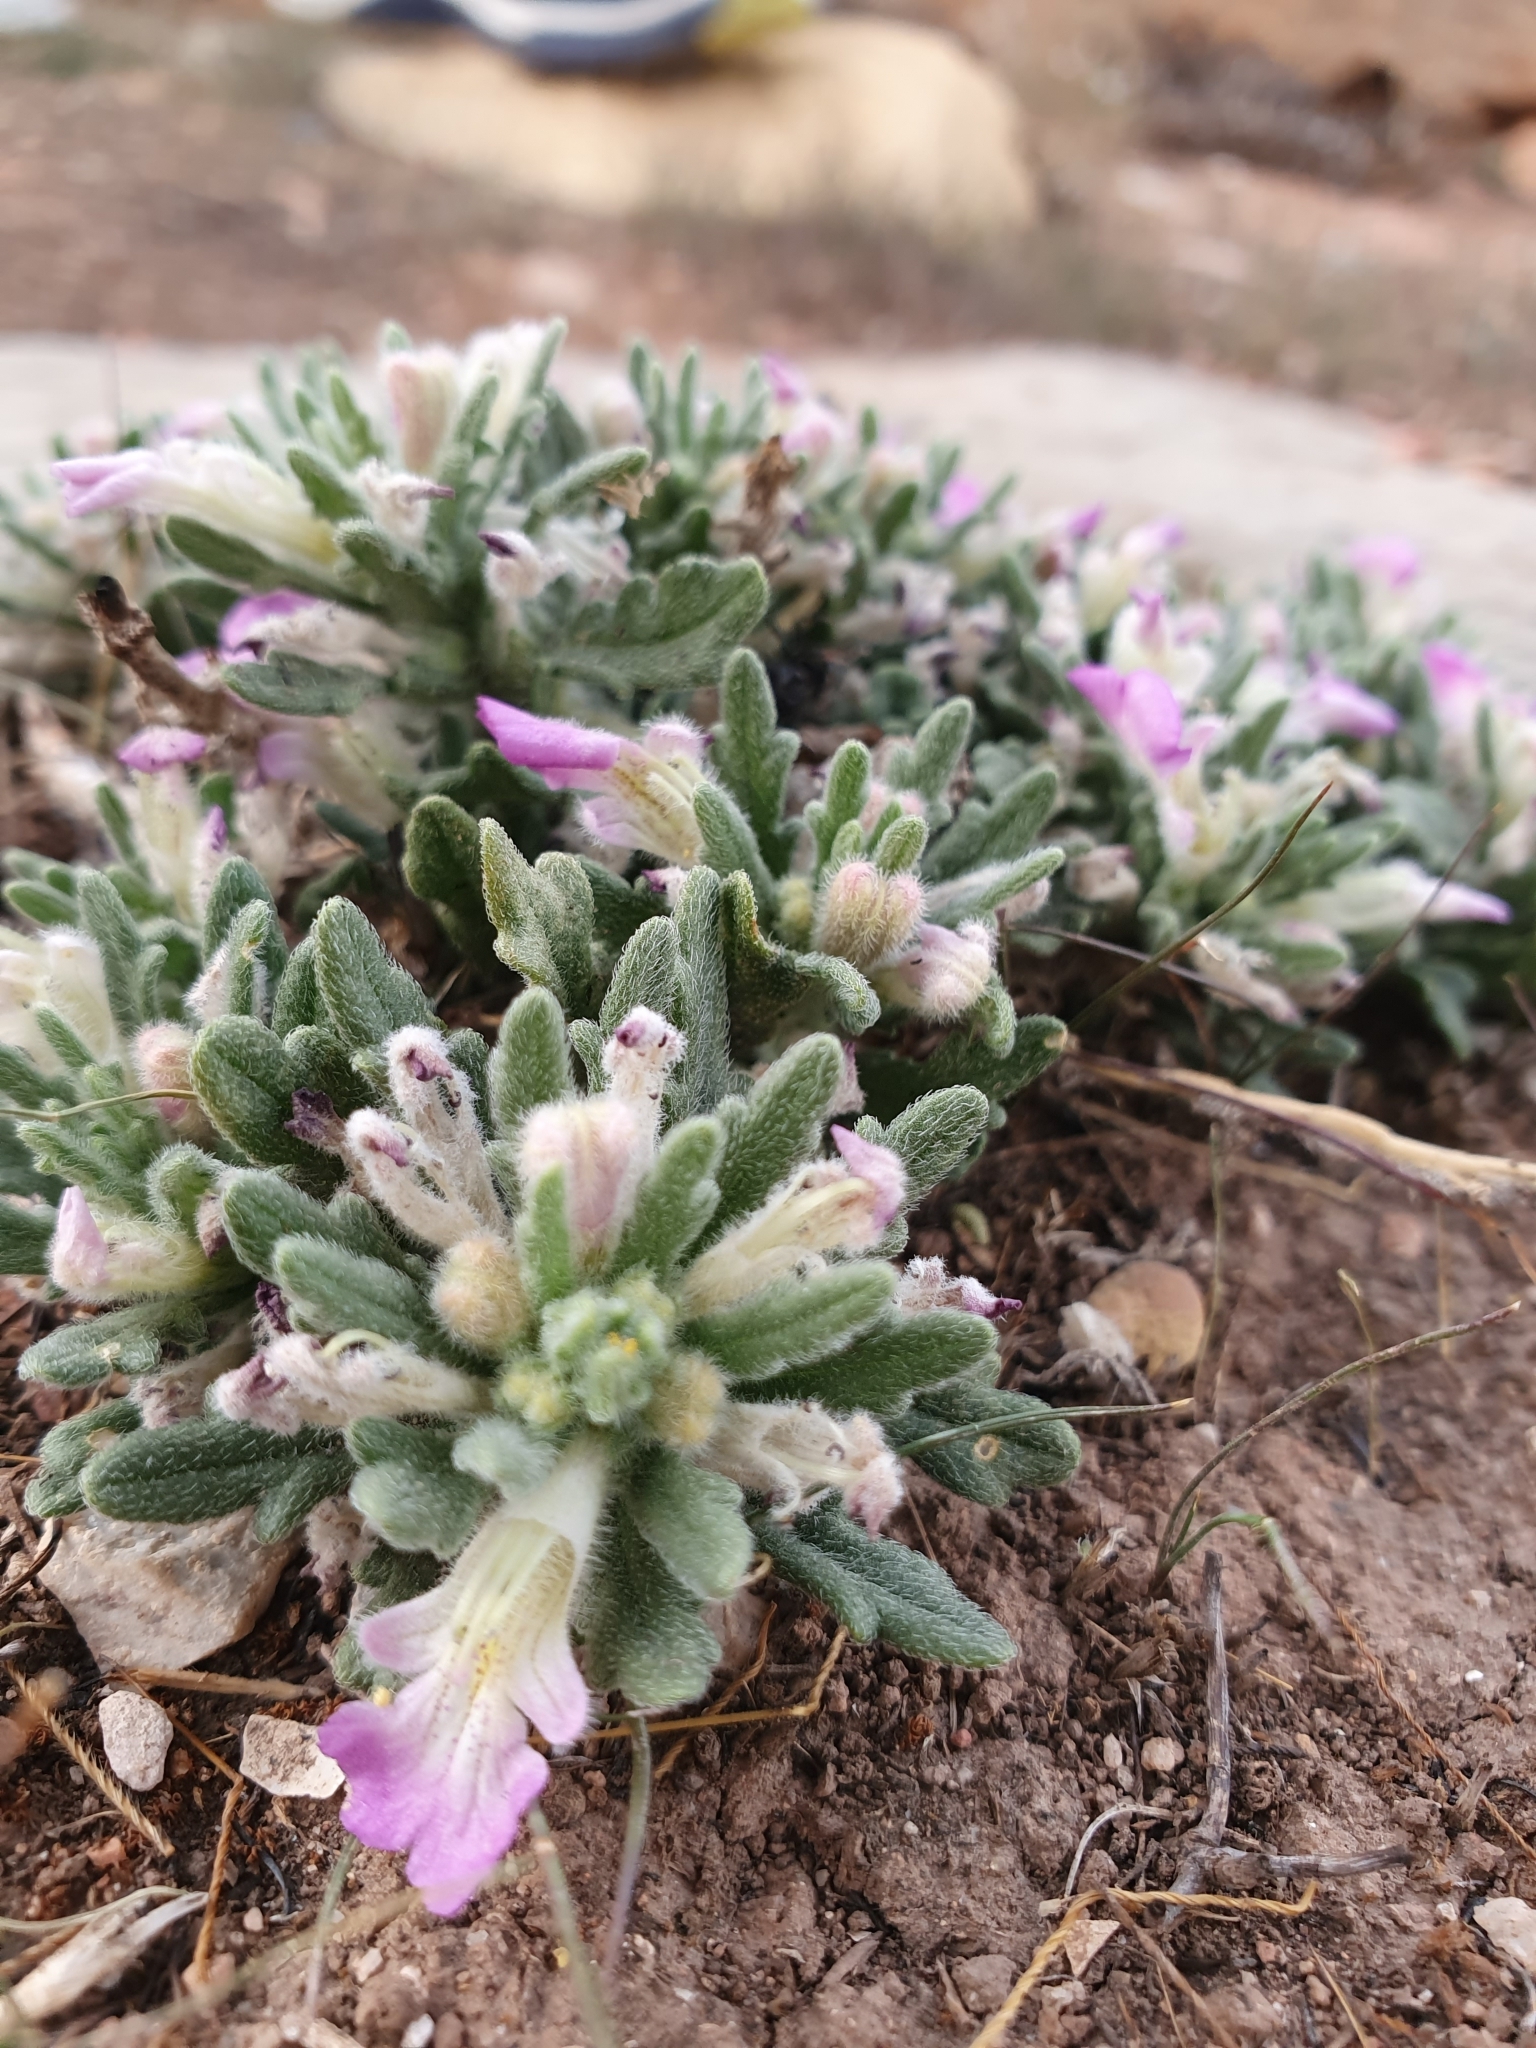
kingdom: Plantae
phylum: Tracheophyta
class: Magnoliopsida
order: Lamiales
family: Lamiaceae
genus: Ajuga
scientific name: Ajuga iva
